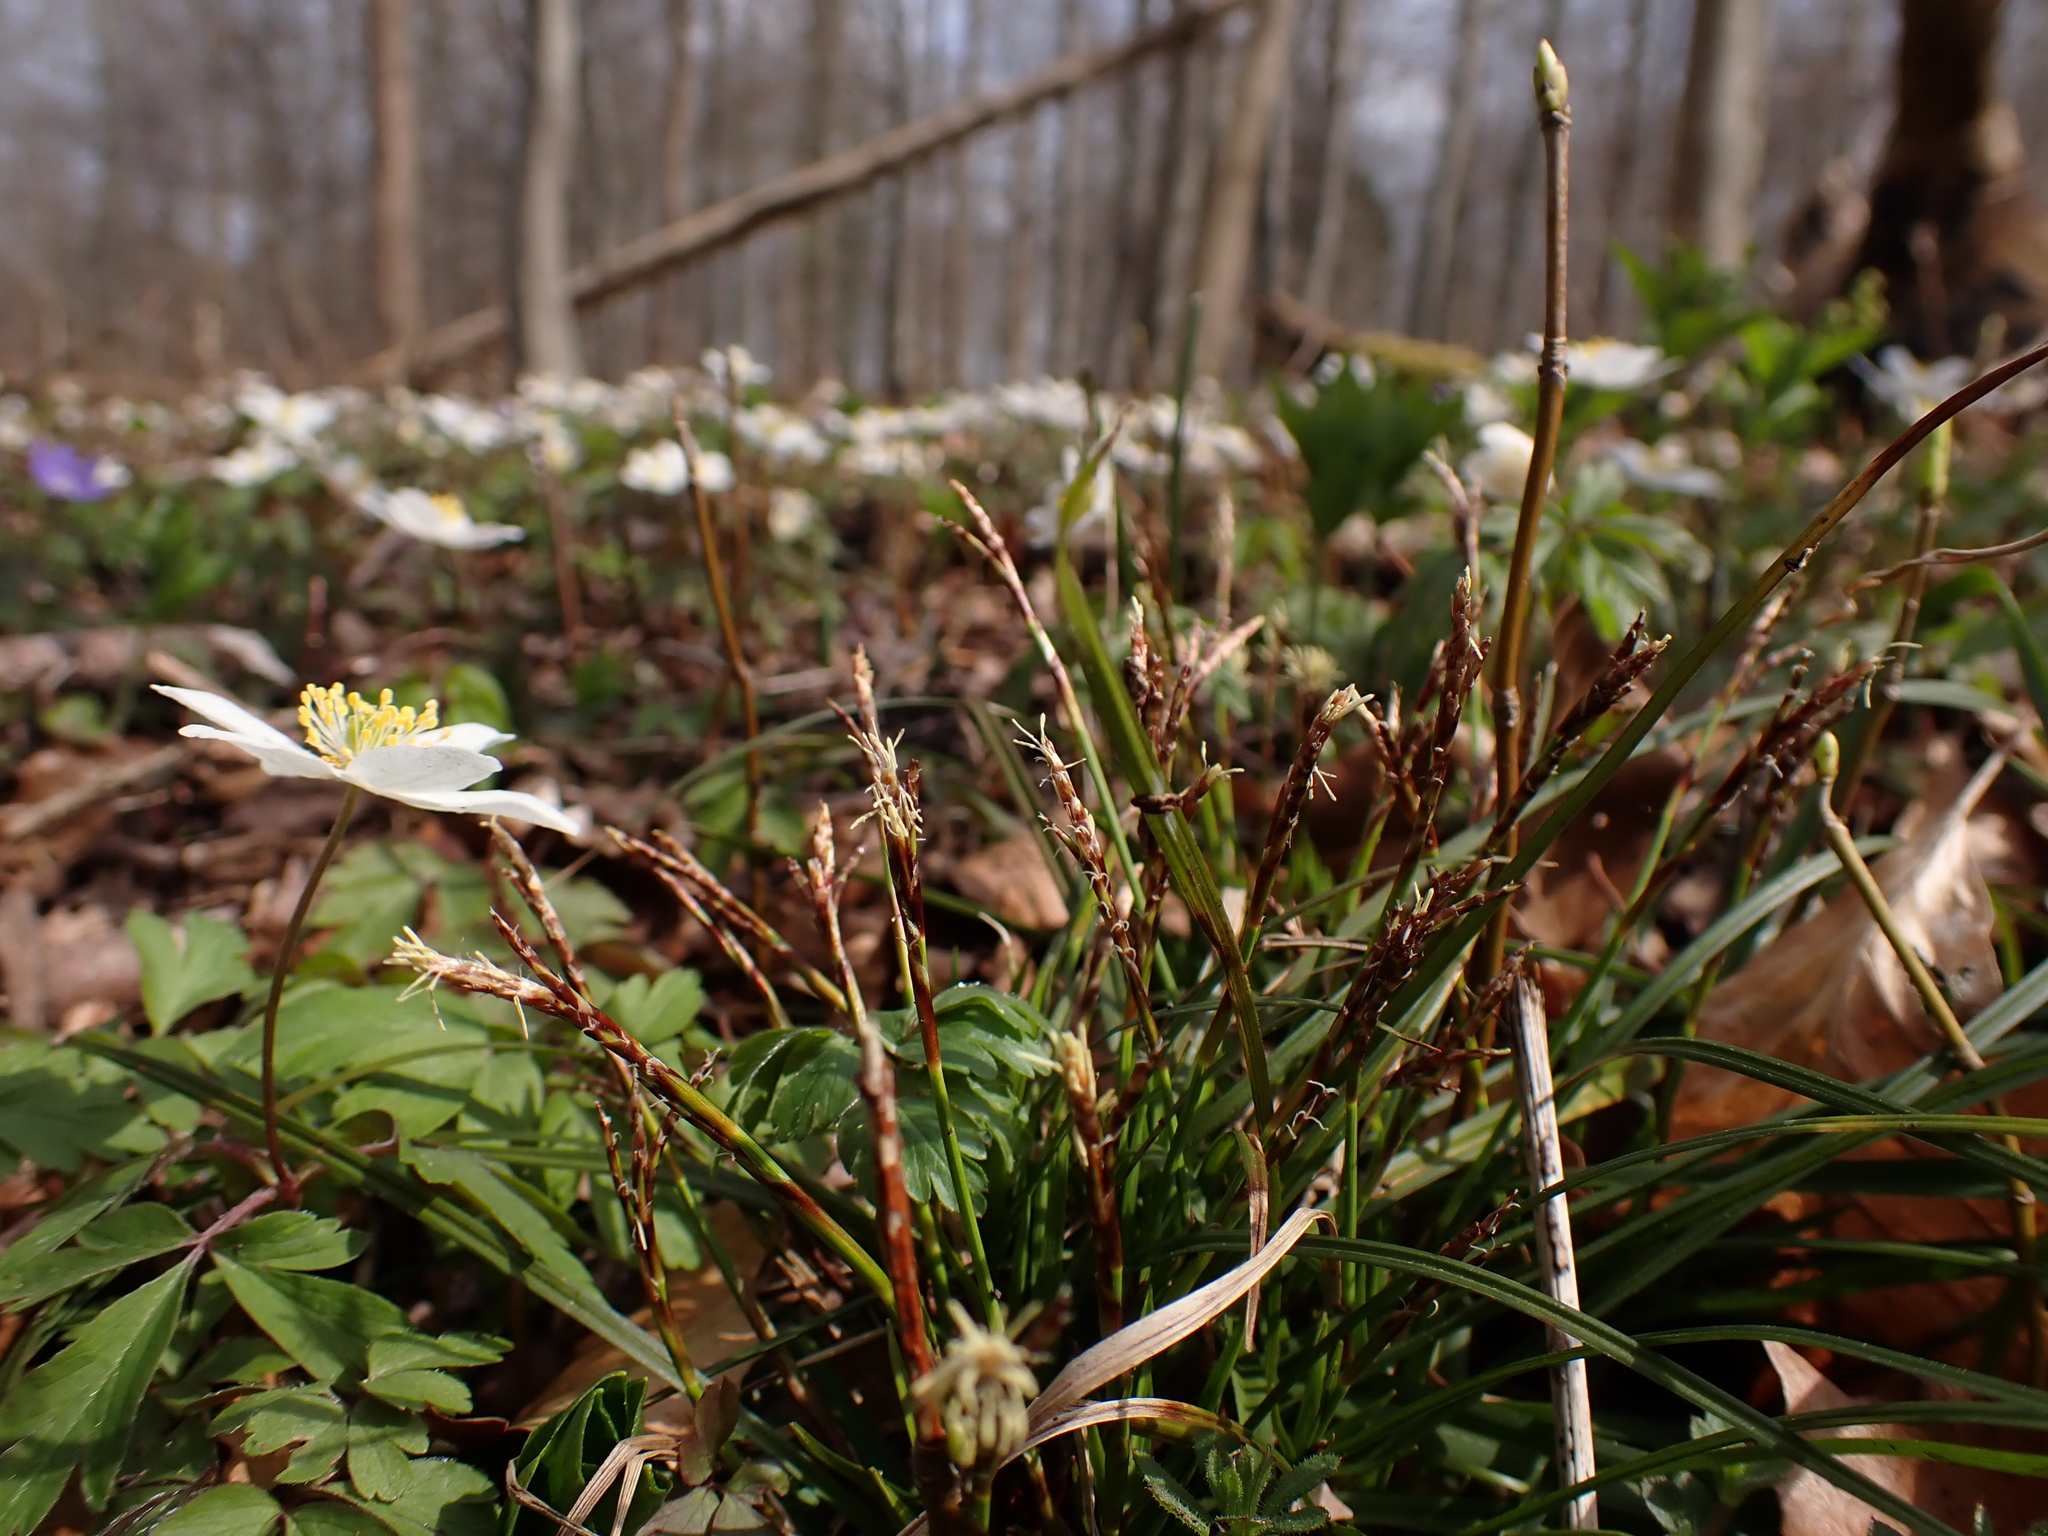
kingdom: Plantae
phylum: Tracheophyta
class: Liliopsida
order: Poales
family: Cyperaceae
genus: Carex
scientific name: Carex digitata
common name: Fingered sedge
